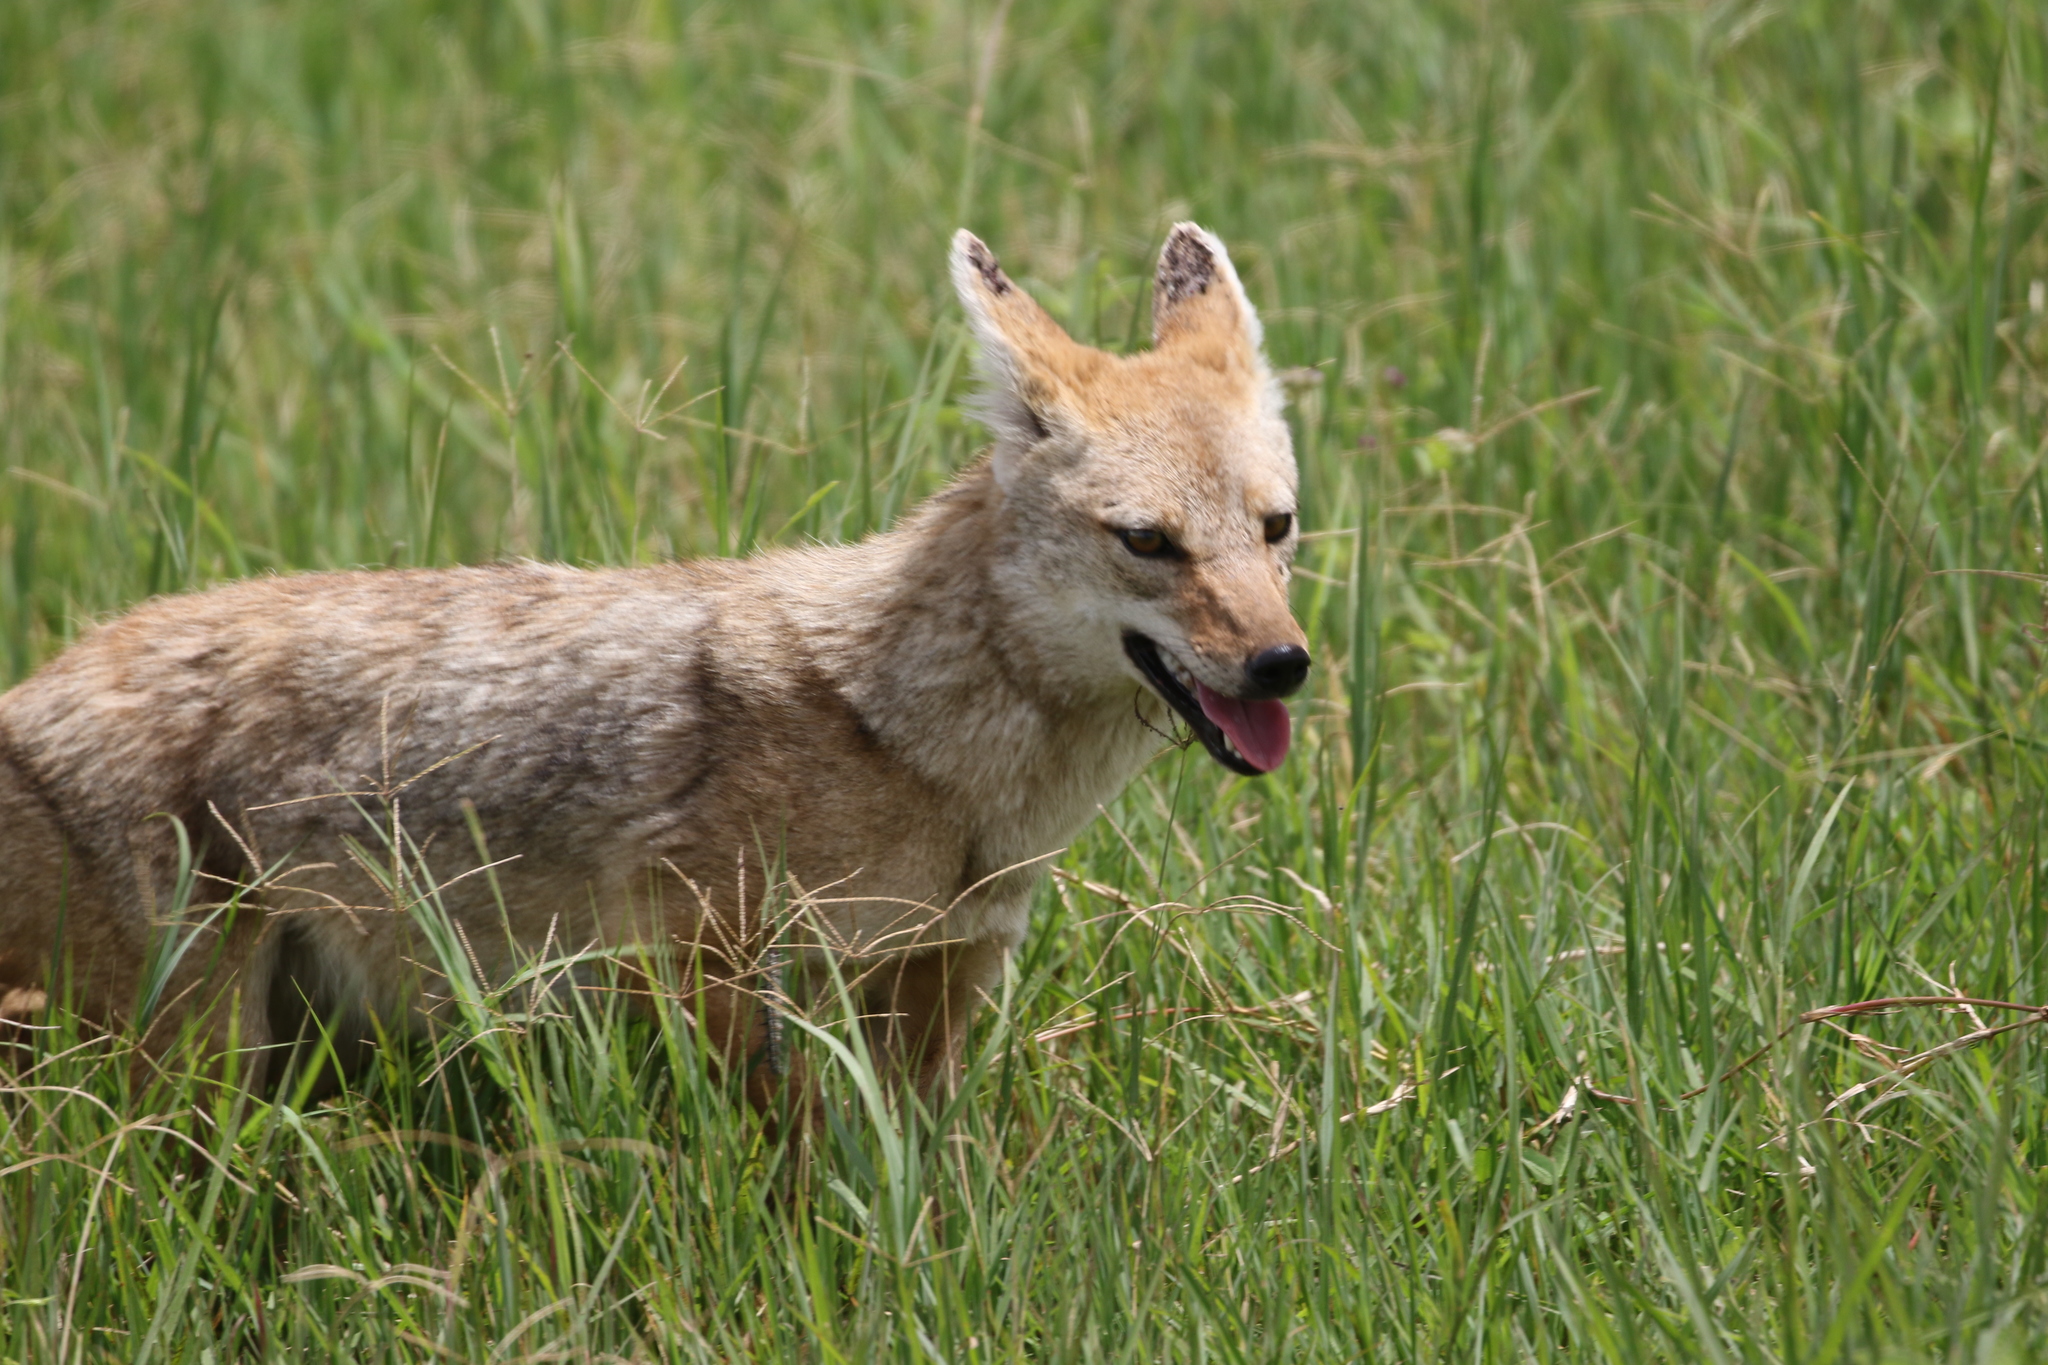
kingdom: Animalia
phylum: Chordata
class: Mammalia
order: Carnivora
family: Canidae
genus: Canis
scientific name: Canis lupaster
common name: African golden wolf
